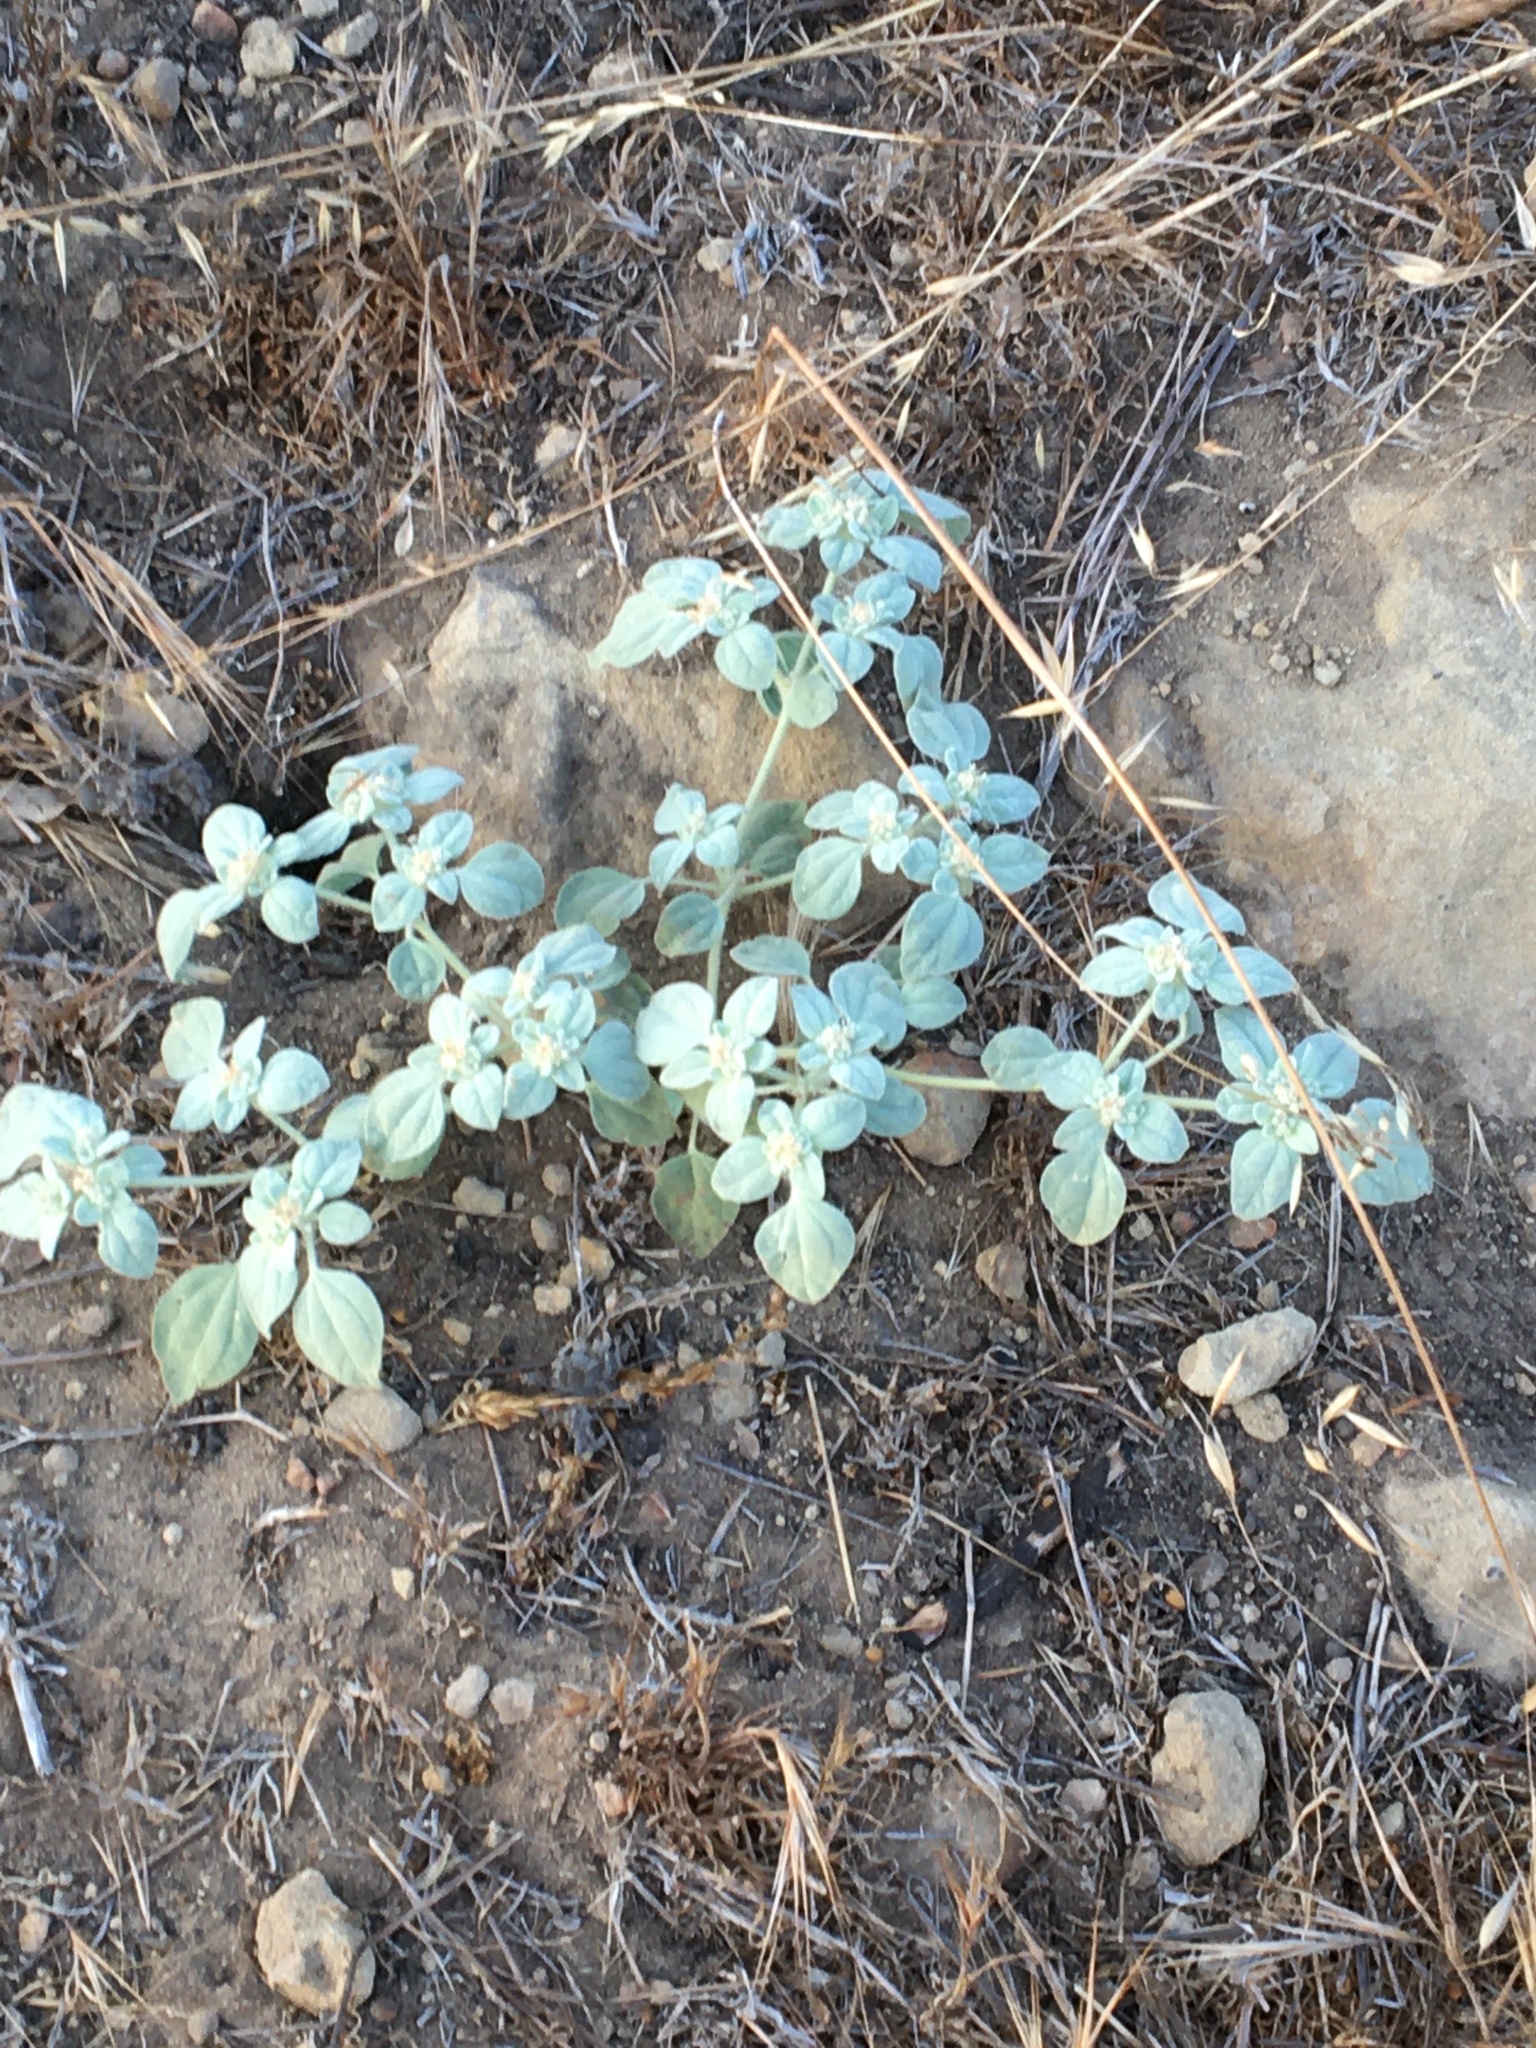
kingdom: Plantae
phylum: Tracheophyta
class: Magnoliopsida
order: Malpighiales
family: Euphorbiaceae
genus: Croton
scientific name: Croton setiger
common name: Dove weed
